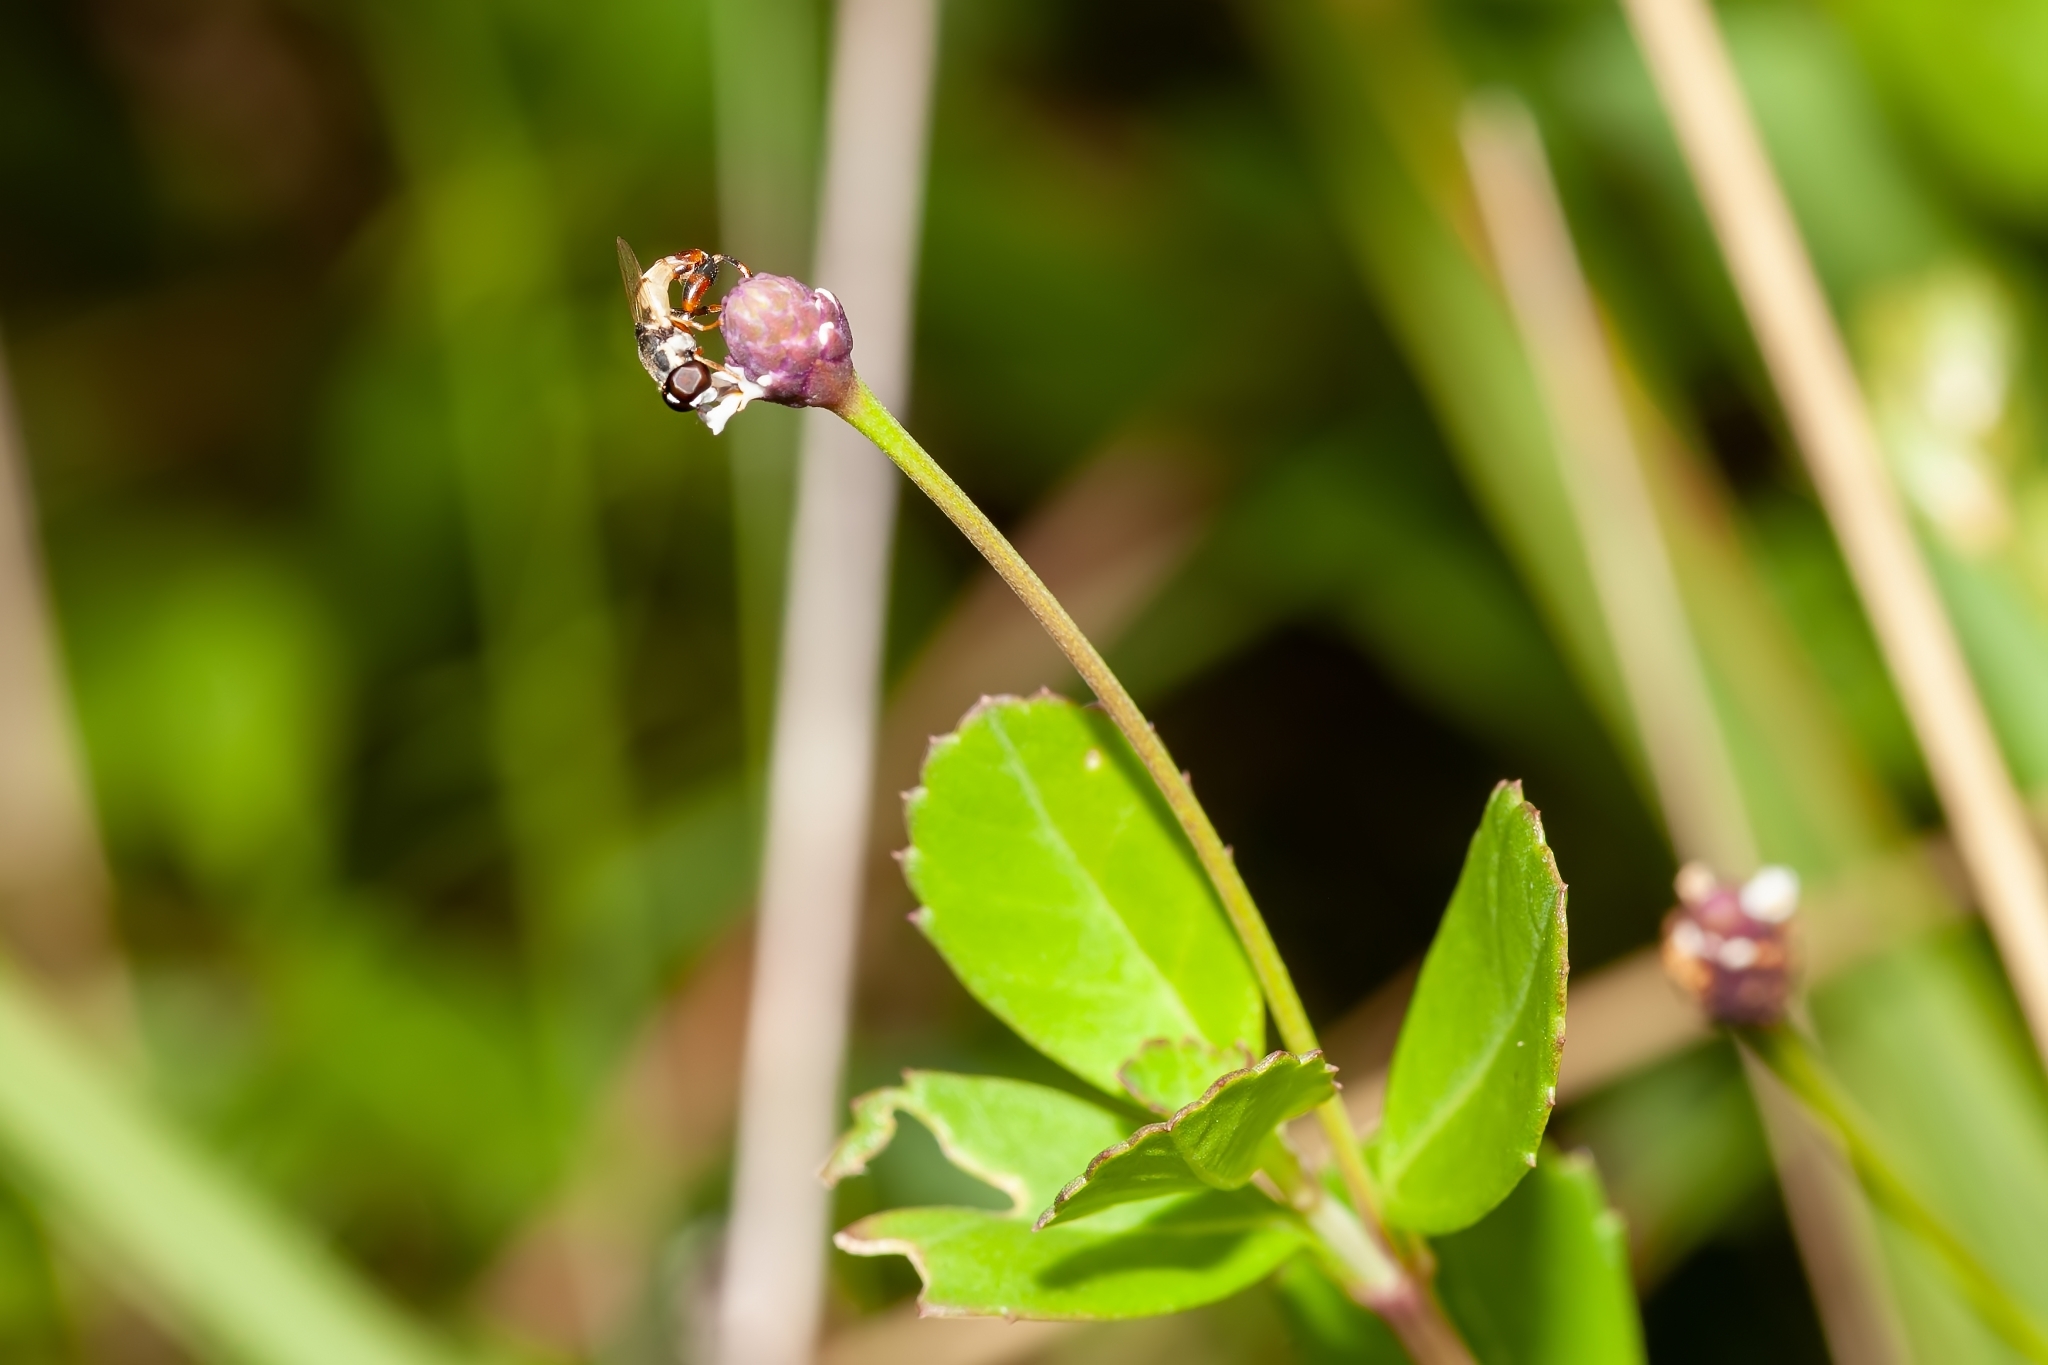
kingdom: Animalia
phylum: Arthropoda
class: Insecta
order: Diptera
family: Syrphidae
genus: Syritta
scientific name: Syritta flaviventris
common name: Syrphid fly
